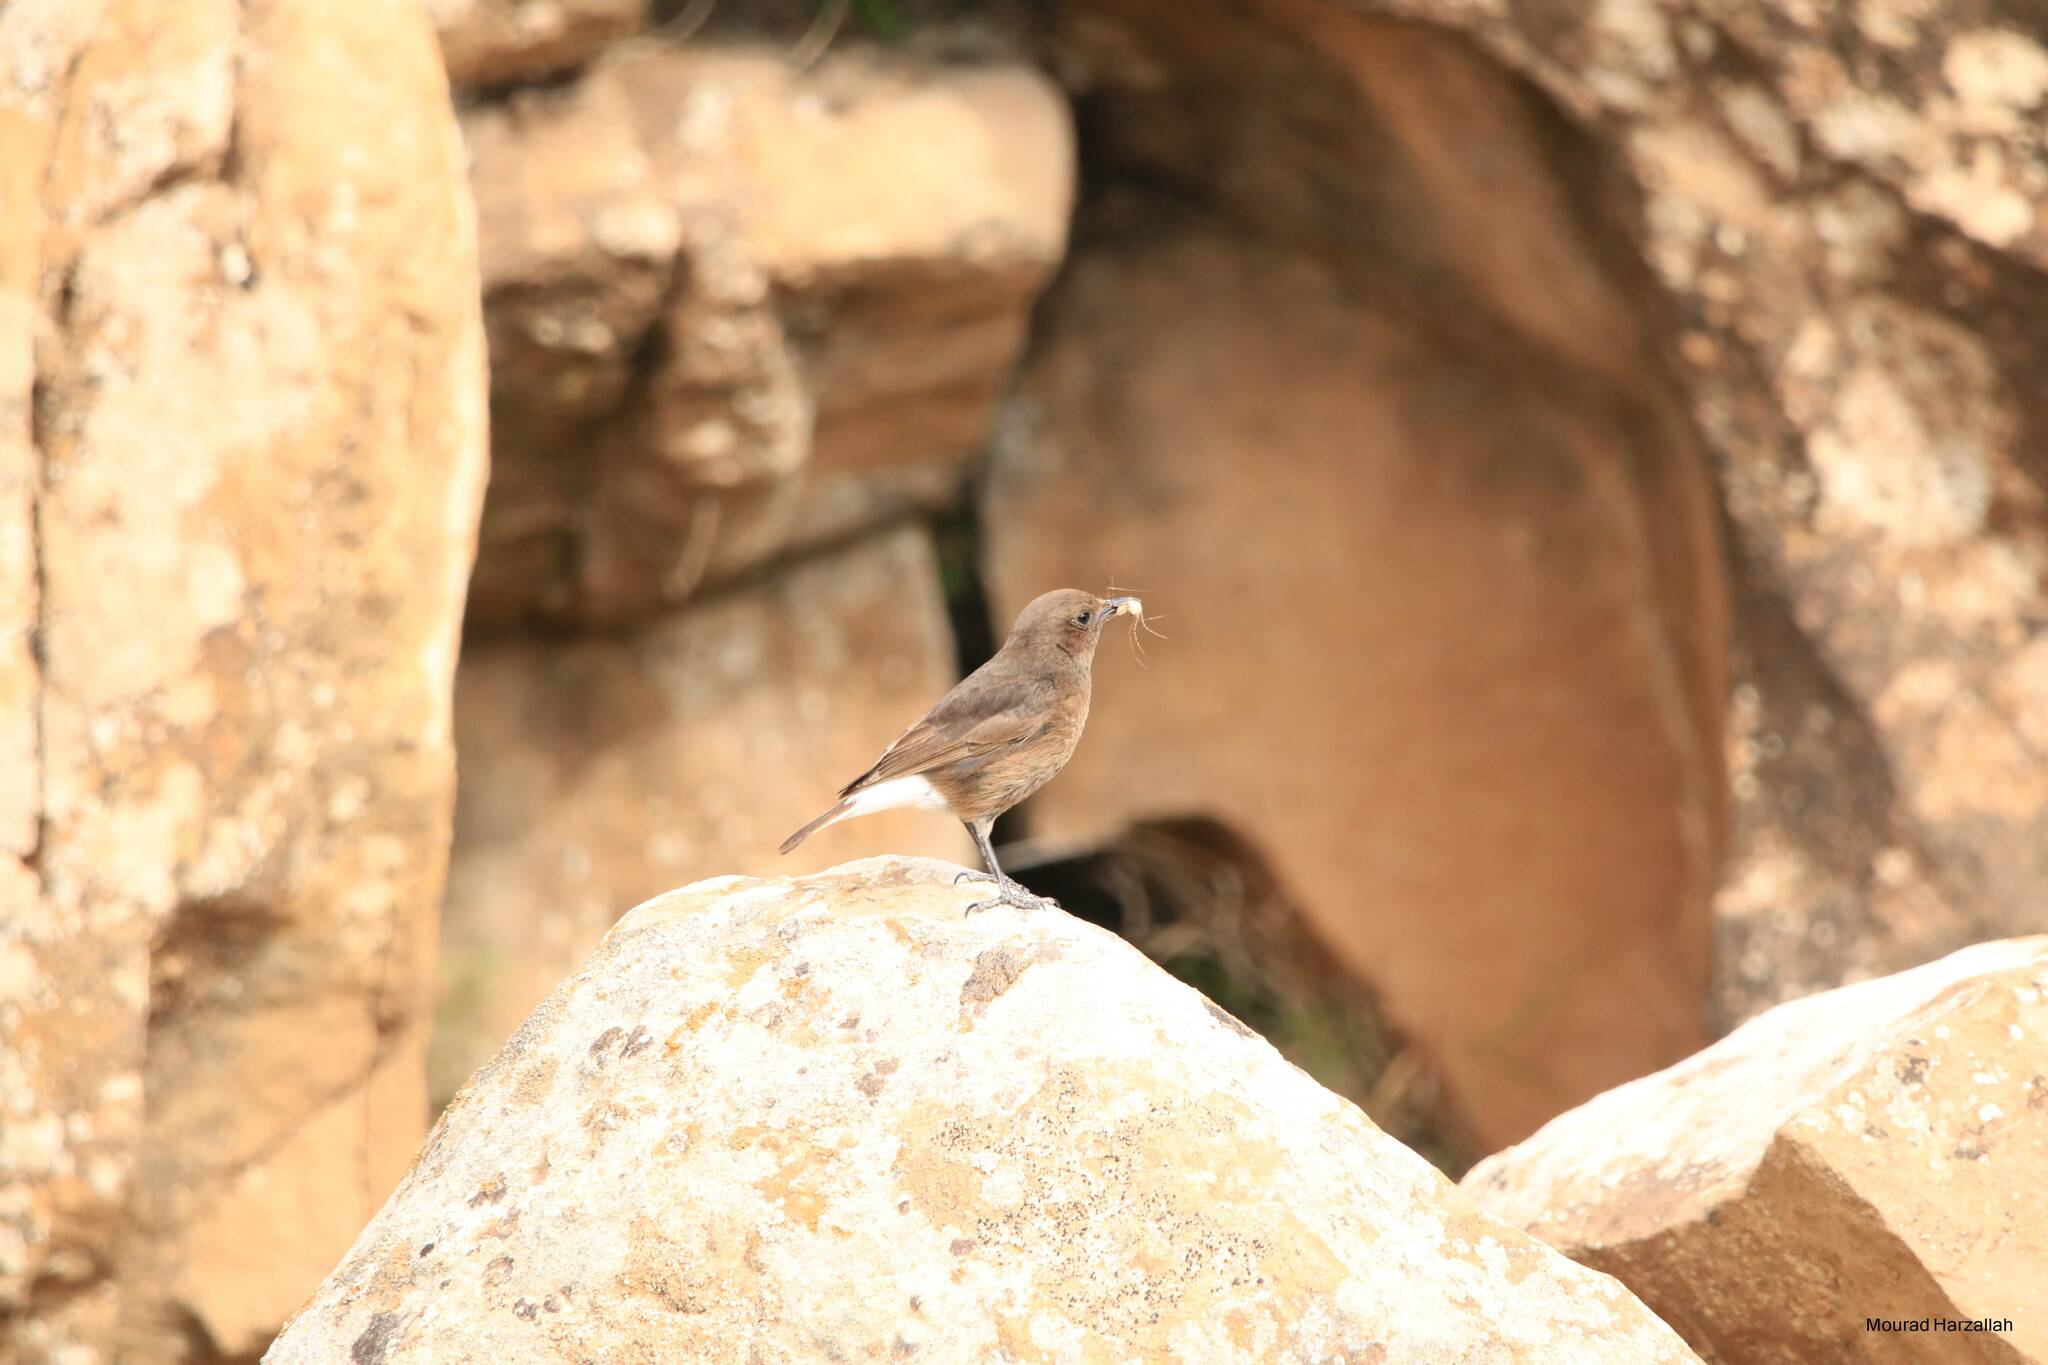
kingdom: Animalia
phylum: Chordata
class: Aves
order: Passeriformes
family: Muscicapidae
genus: Oenanthe
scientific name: Oenanthe leucura
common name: Black wheatear
